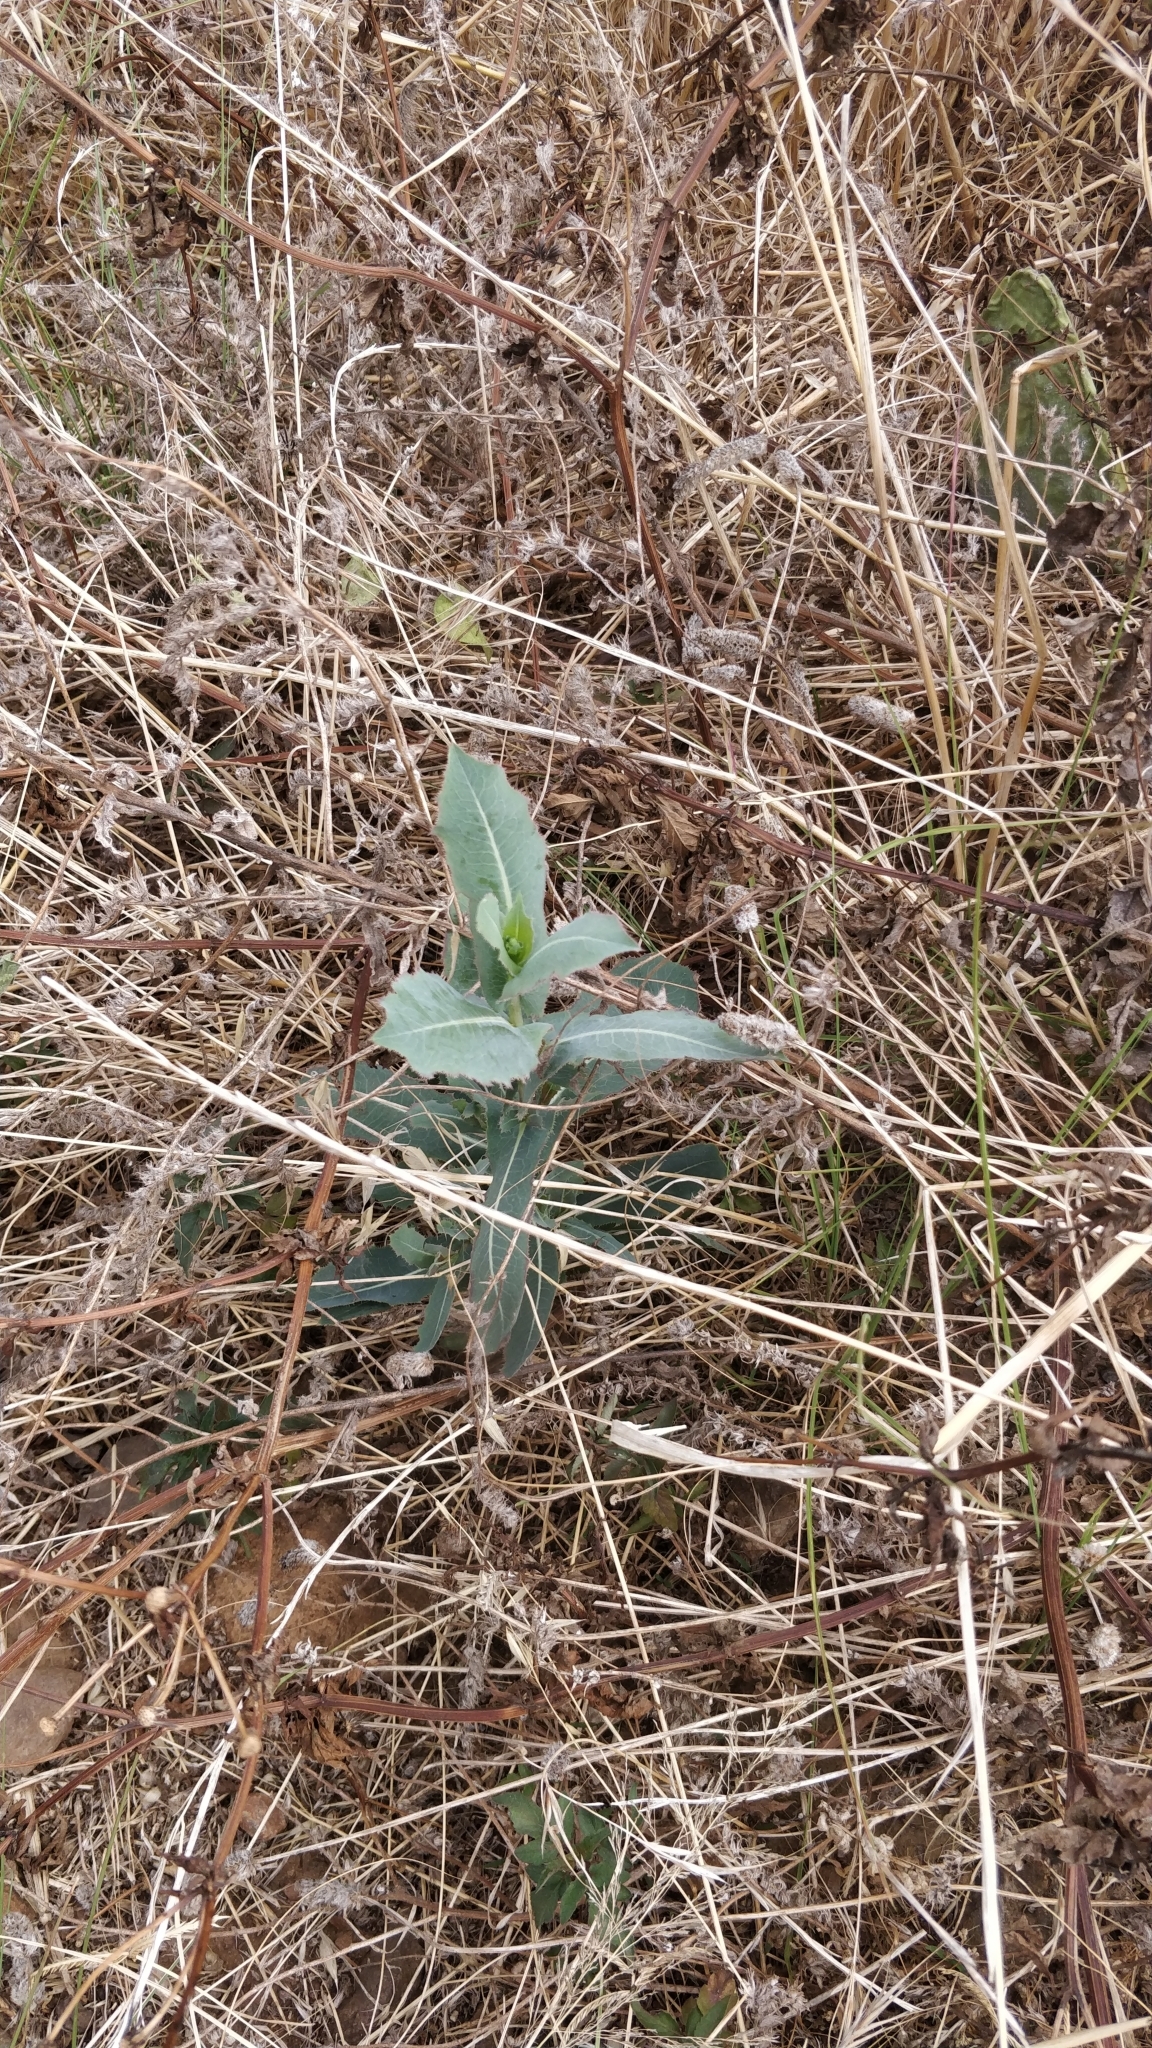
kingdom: Plantae
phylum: Tracheophyta
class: Magnoliopsida
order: Asterales
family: Asteraceae
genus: Lactuca
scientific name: Lactuca serriola
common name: Prickly lettuce
